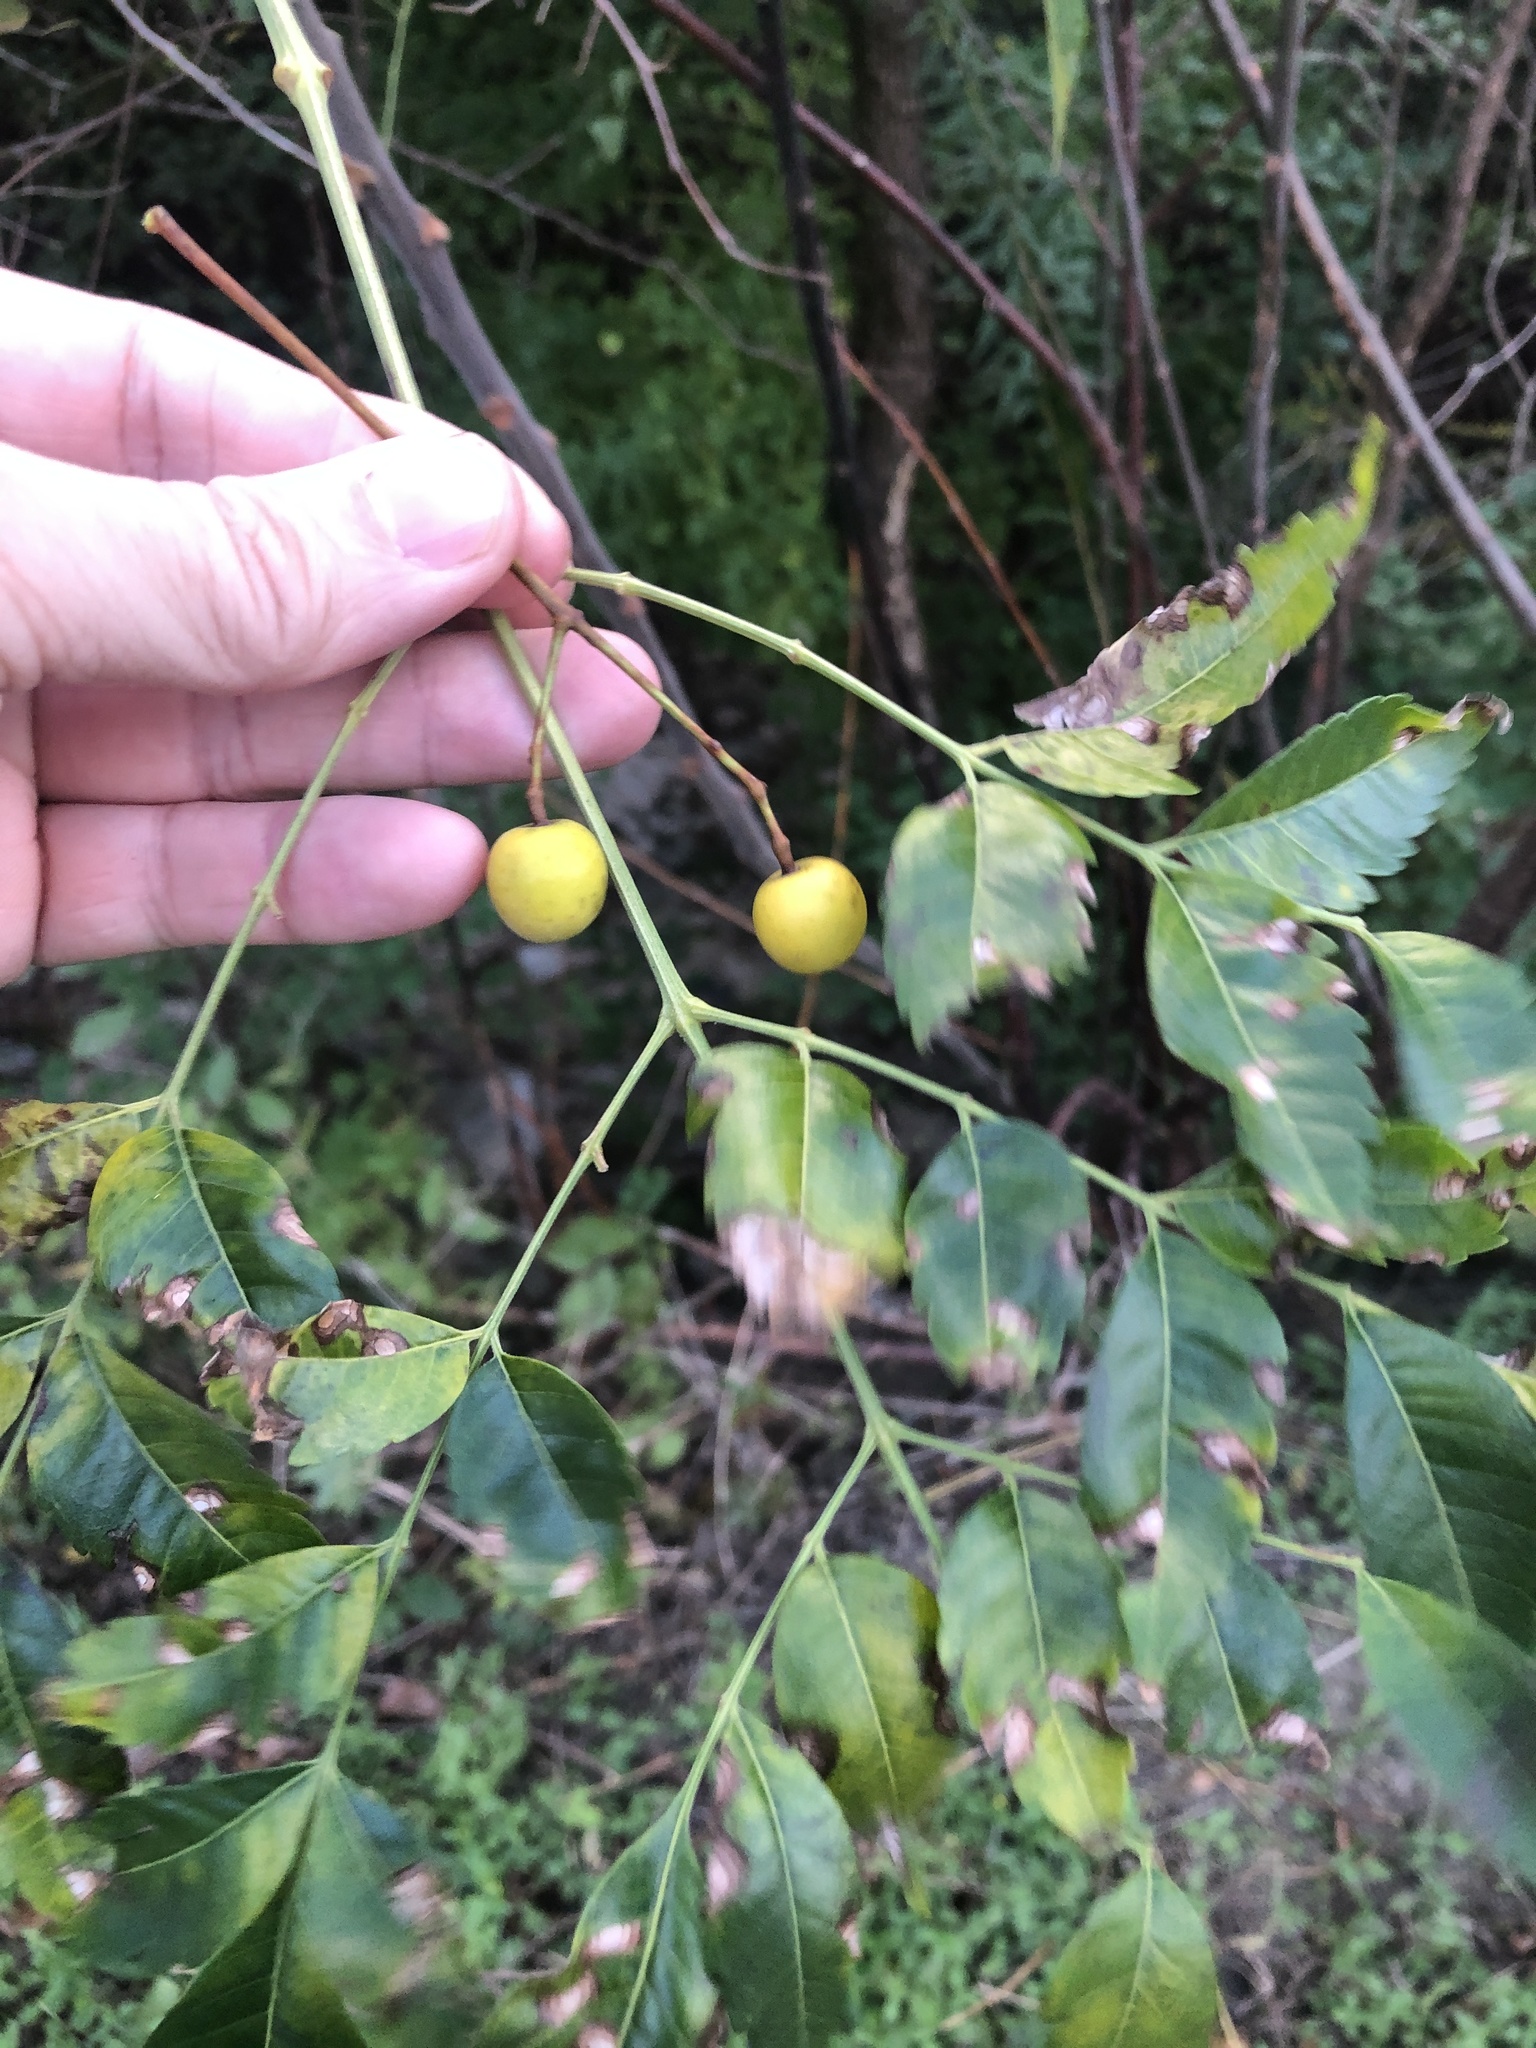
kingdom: Plantae
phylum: Tracheophyta
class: Magnoliopsida
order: Sapindales
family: Meliaceae
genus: Melia
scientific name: Melia azedarach
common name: Chinaberrytree
